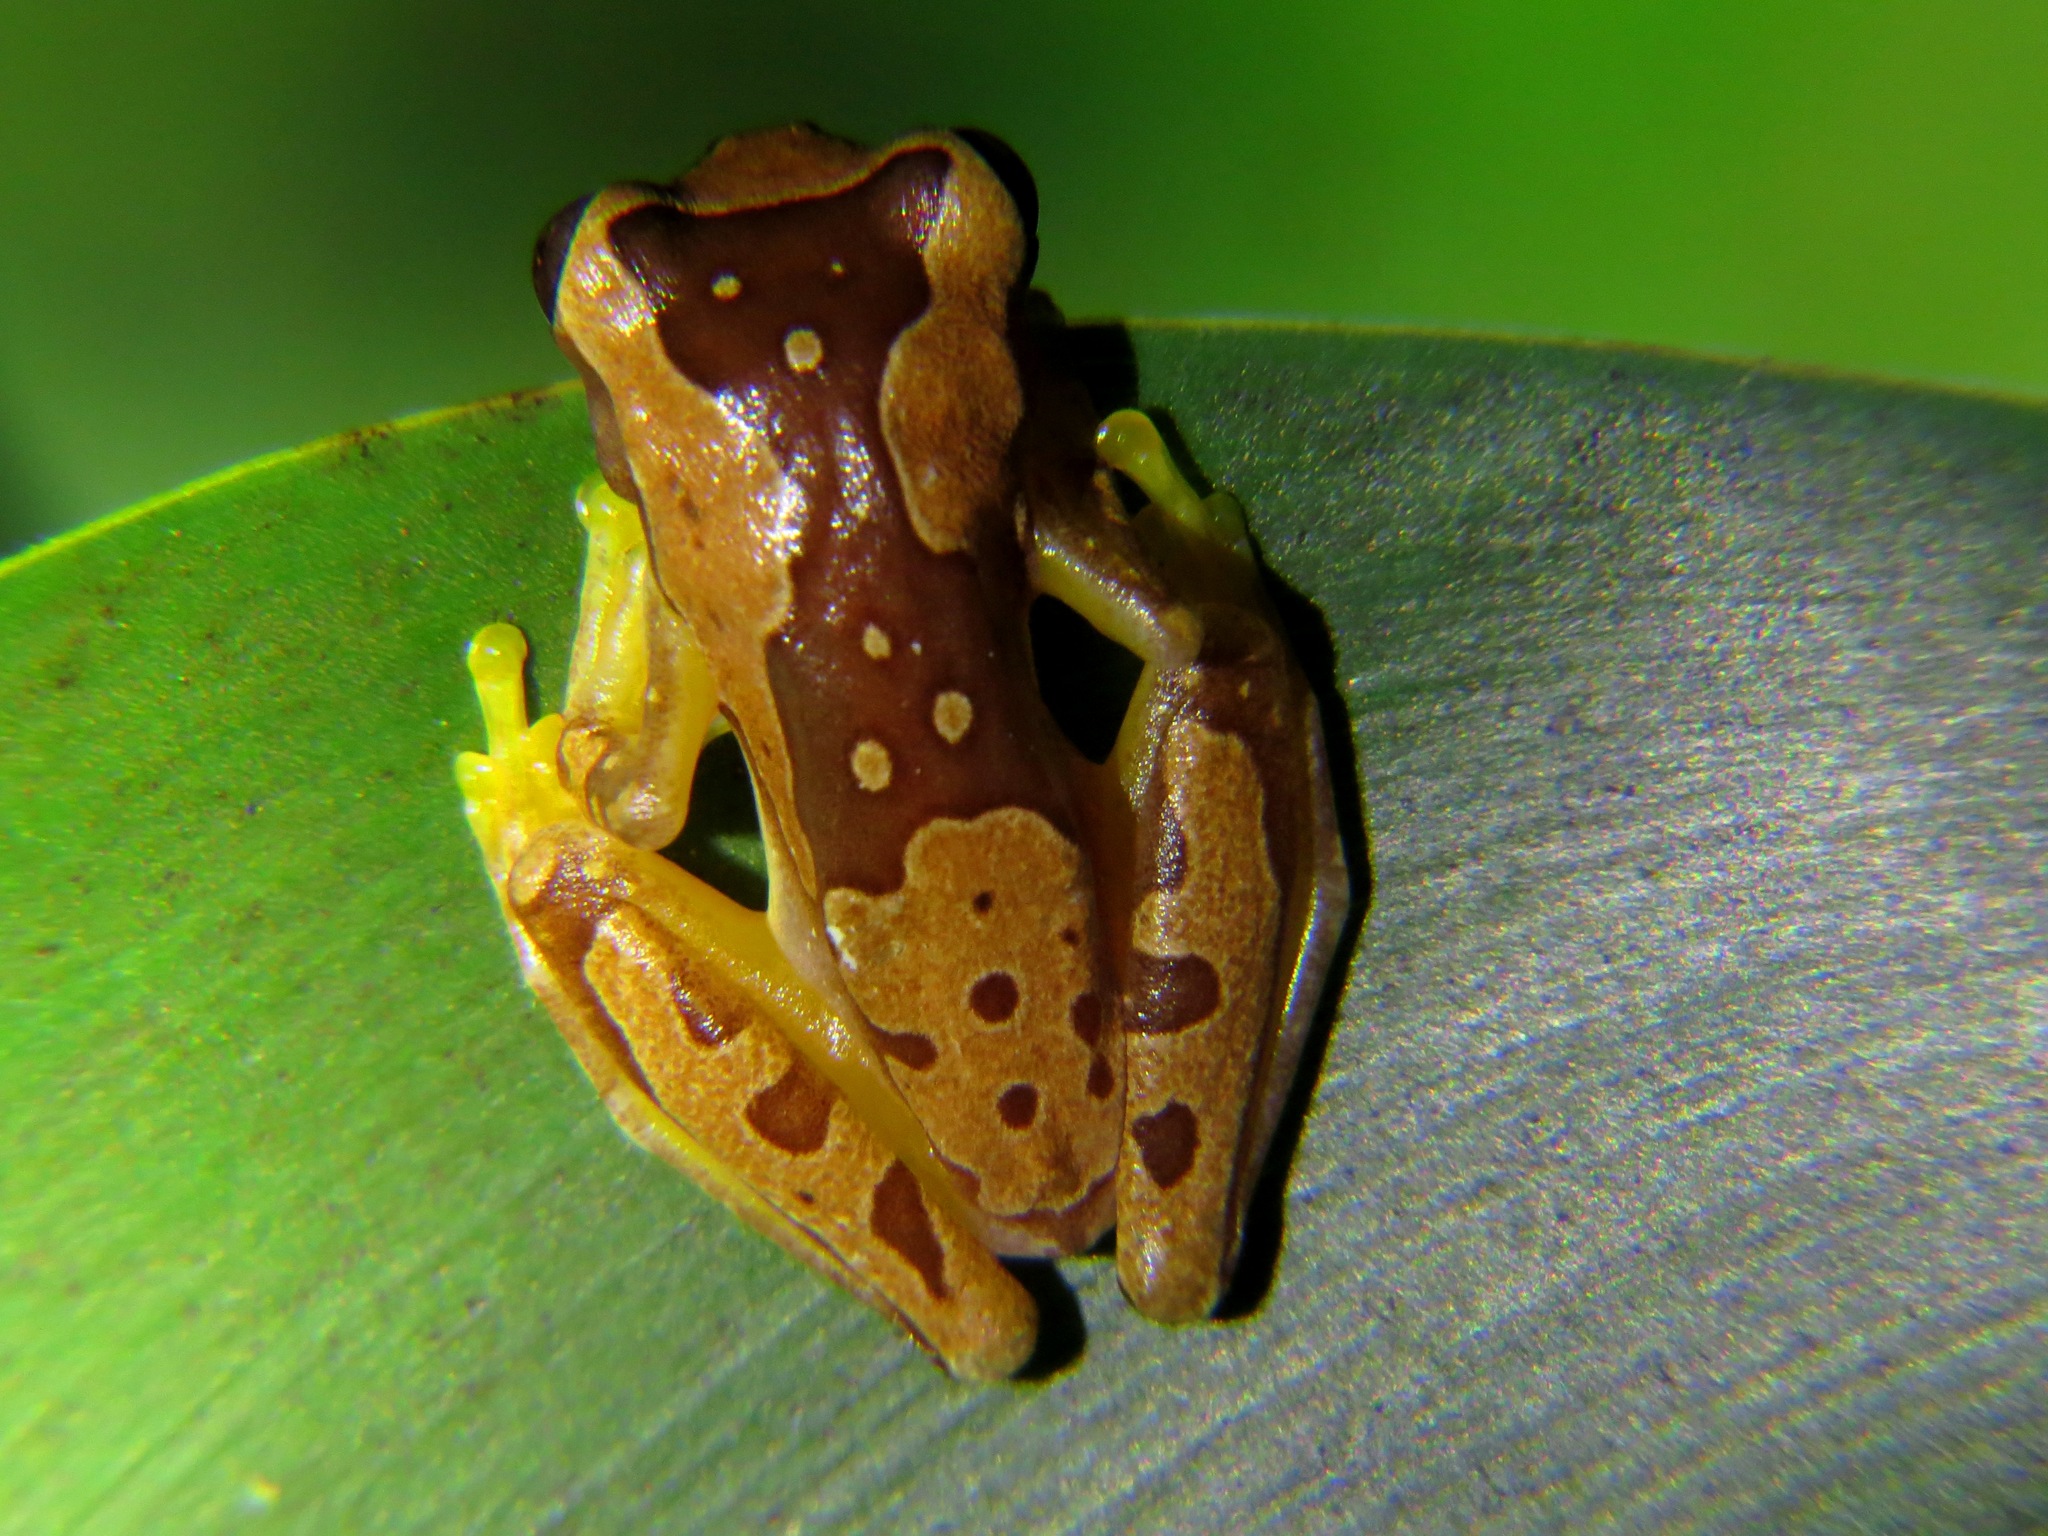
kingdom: Animalia
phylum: Chordata
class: Amphibia
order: Anura
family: Hylidae
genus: Dendropsophus
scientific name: Dendropsophus ebraccatus
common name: Hourglass treefrog
